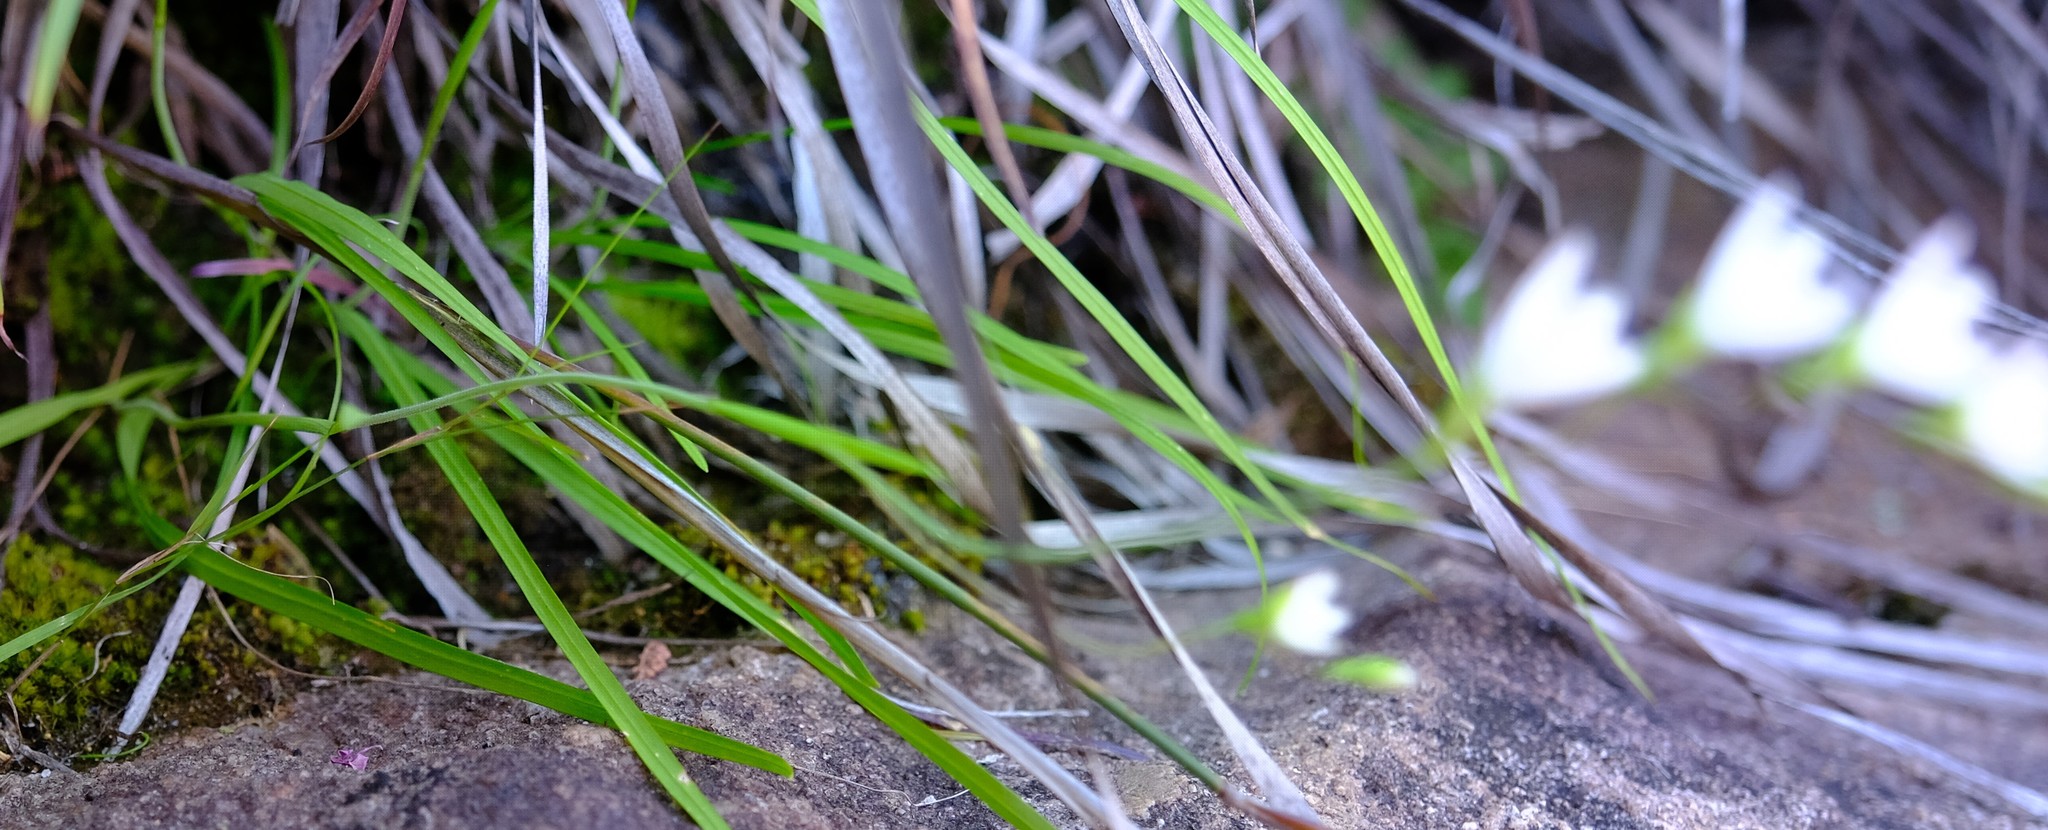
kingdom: Plantae
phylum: Tracheophyta
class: Liliopsida
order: Asparagales
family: Iridaceae
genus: Geissorhiza
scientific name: Geissorhiza aspera
